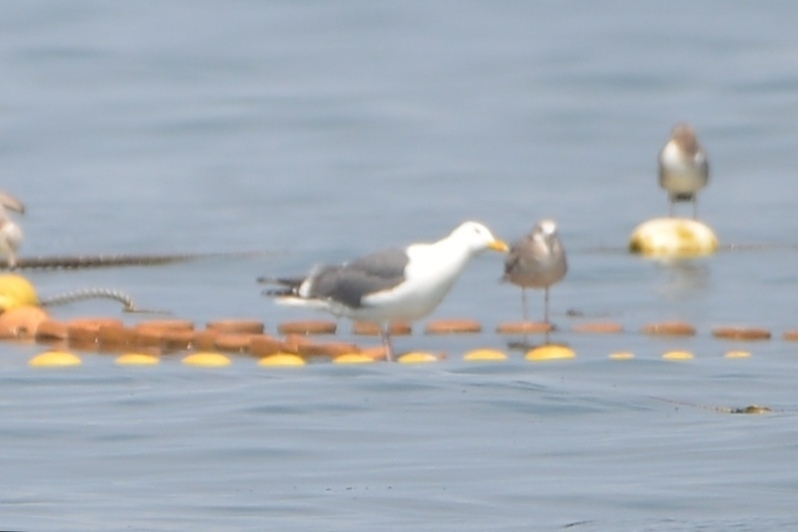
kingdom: Animalia
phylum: Chordata
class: Aves
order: Charadriiformes
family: Laridae
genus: Larus
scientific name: Larus schistisagus
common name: Slaty-backed gull
